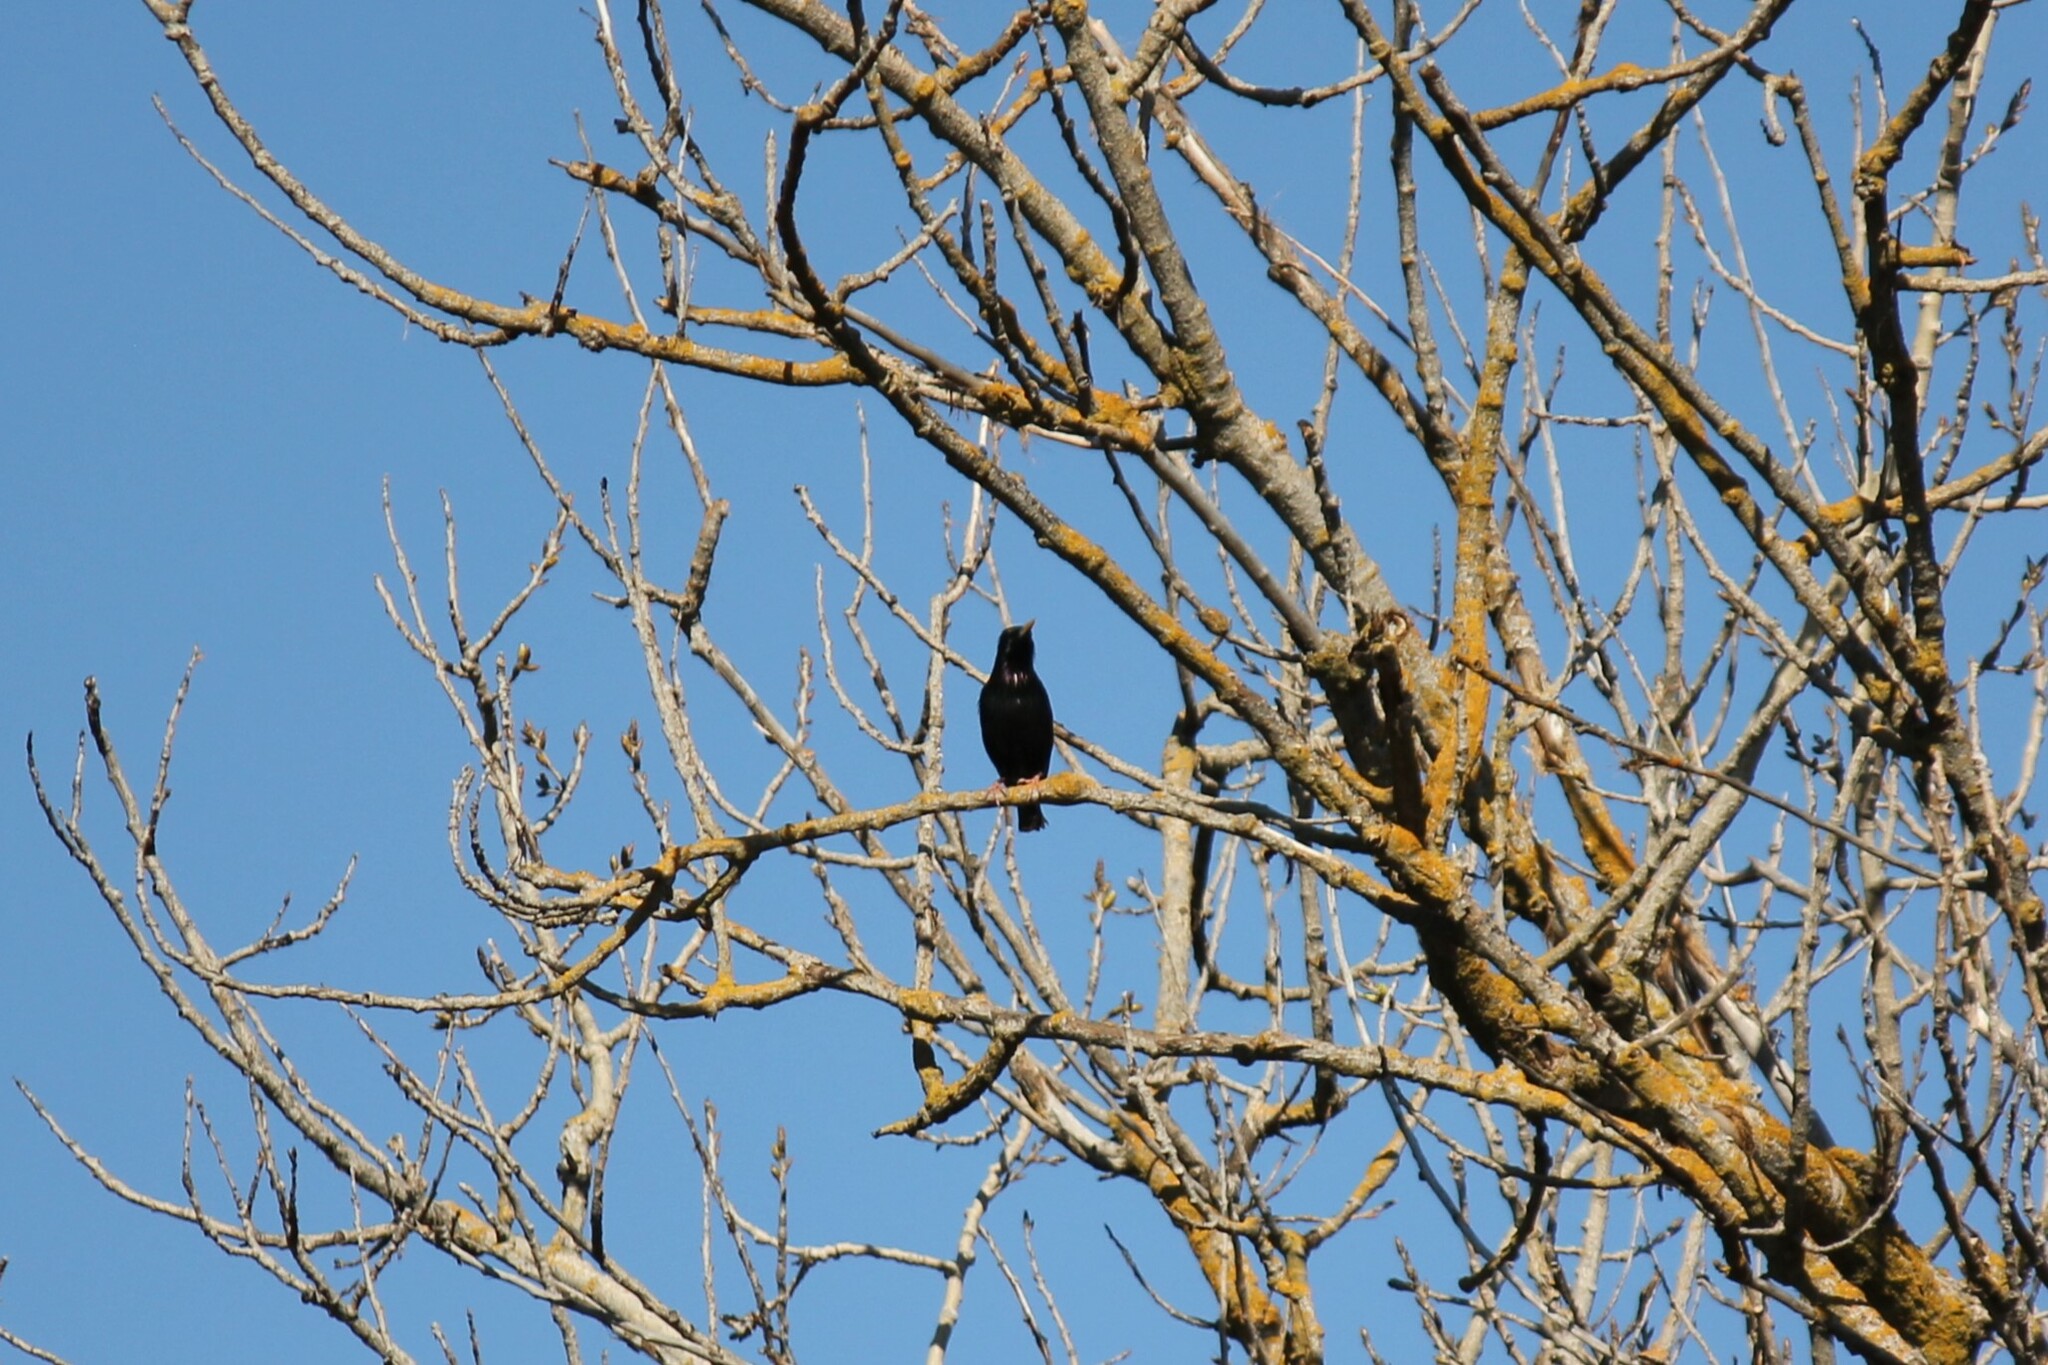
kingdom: Animalia
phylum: Chordata
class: Aves
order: Passeriformes
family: Sturnidae
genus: Sturnus
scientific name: Sturnus vulgaris
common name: Common starling
